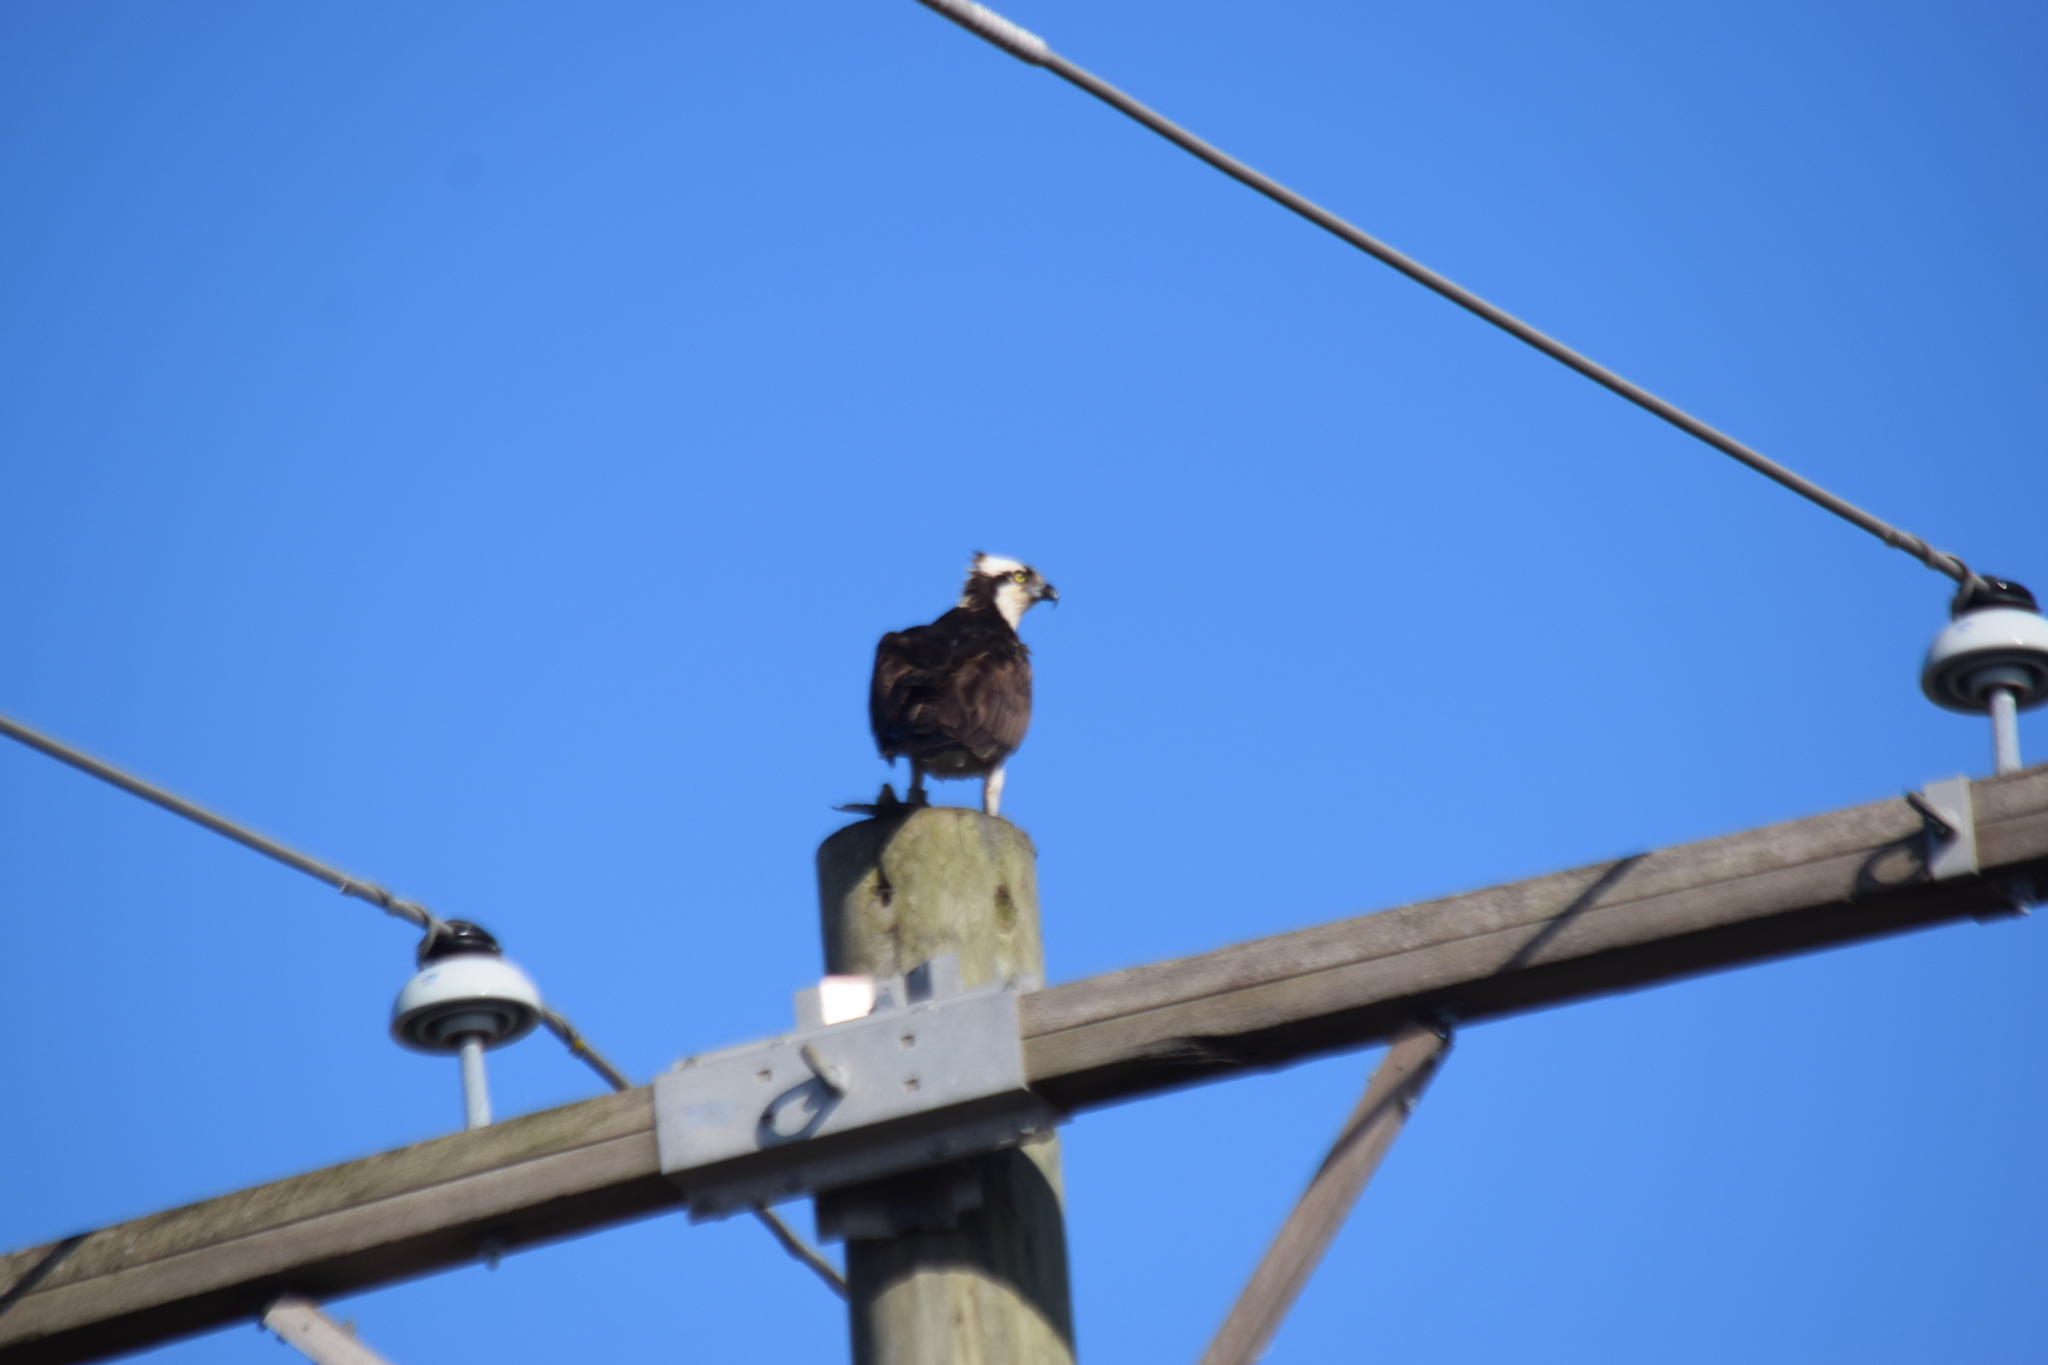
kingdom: Animalia
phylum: Chordata
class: Aves
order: Accipitriformes
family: Pandionidae
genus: Pandion
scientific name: Pandion haliaetus
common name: Osprey
